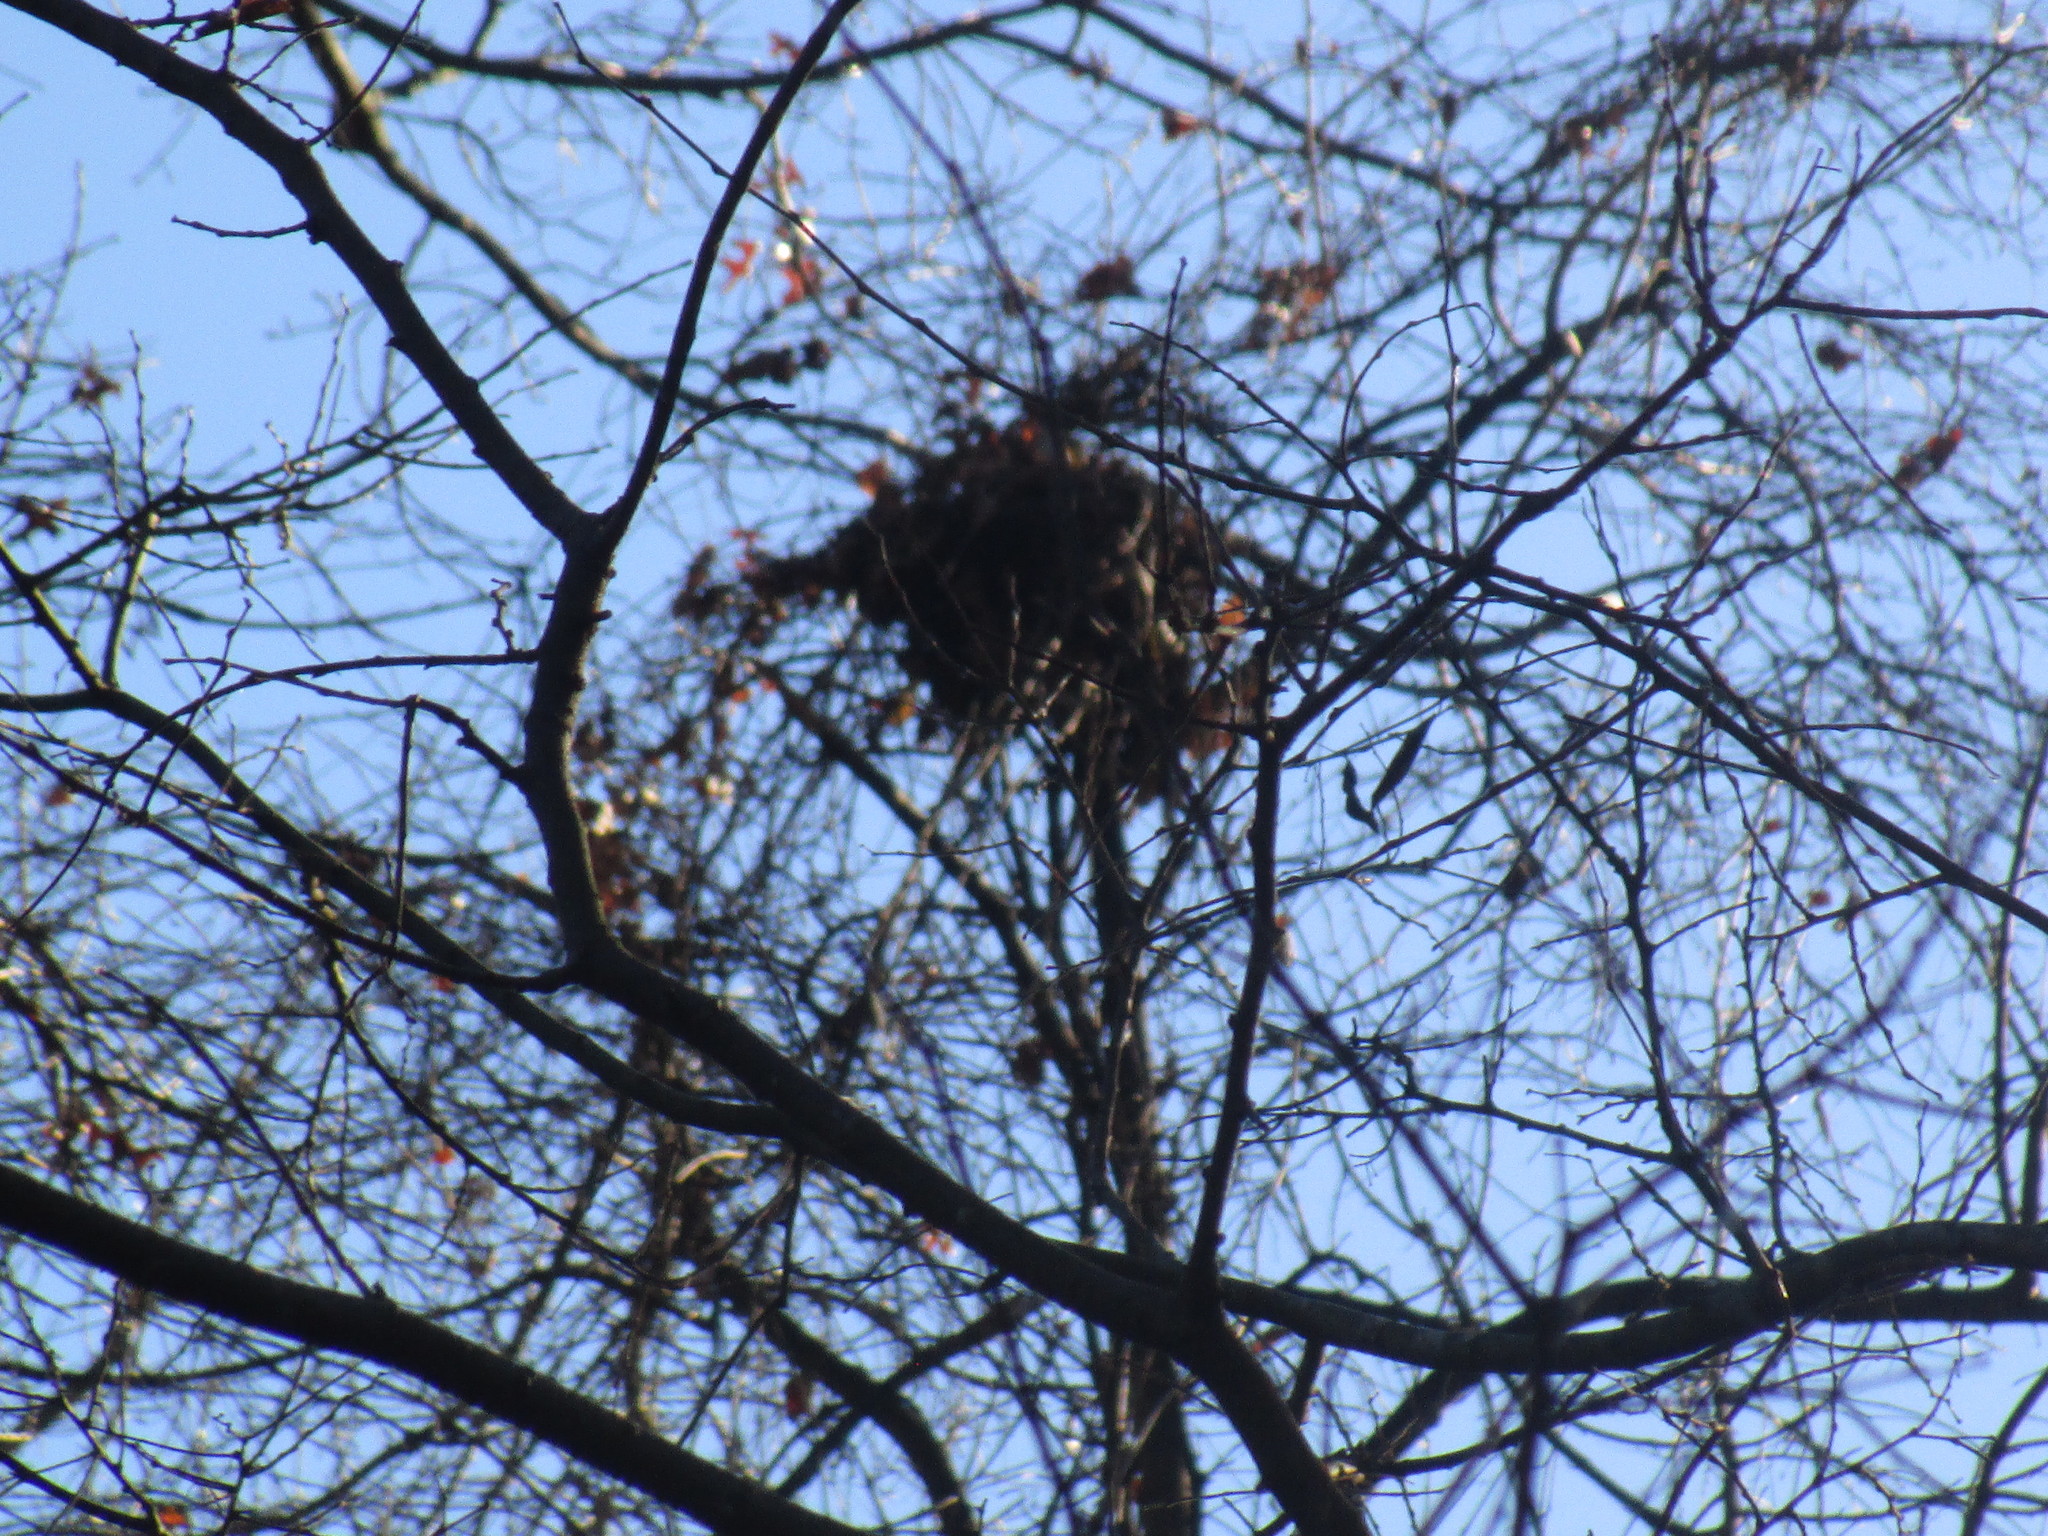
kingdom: Animalia
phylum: Chordata
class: Mammalia
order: Rodentia
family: Sciuridae
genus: Sciurus
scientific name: Sciurus carolinensis
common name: Eastern gray squirrel
